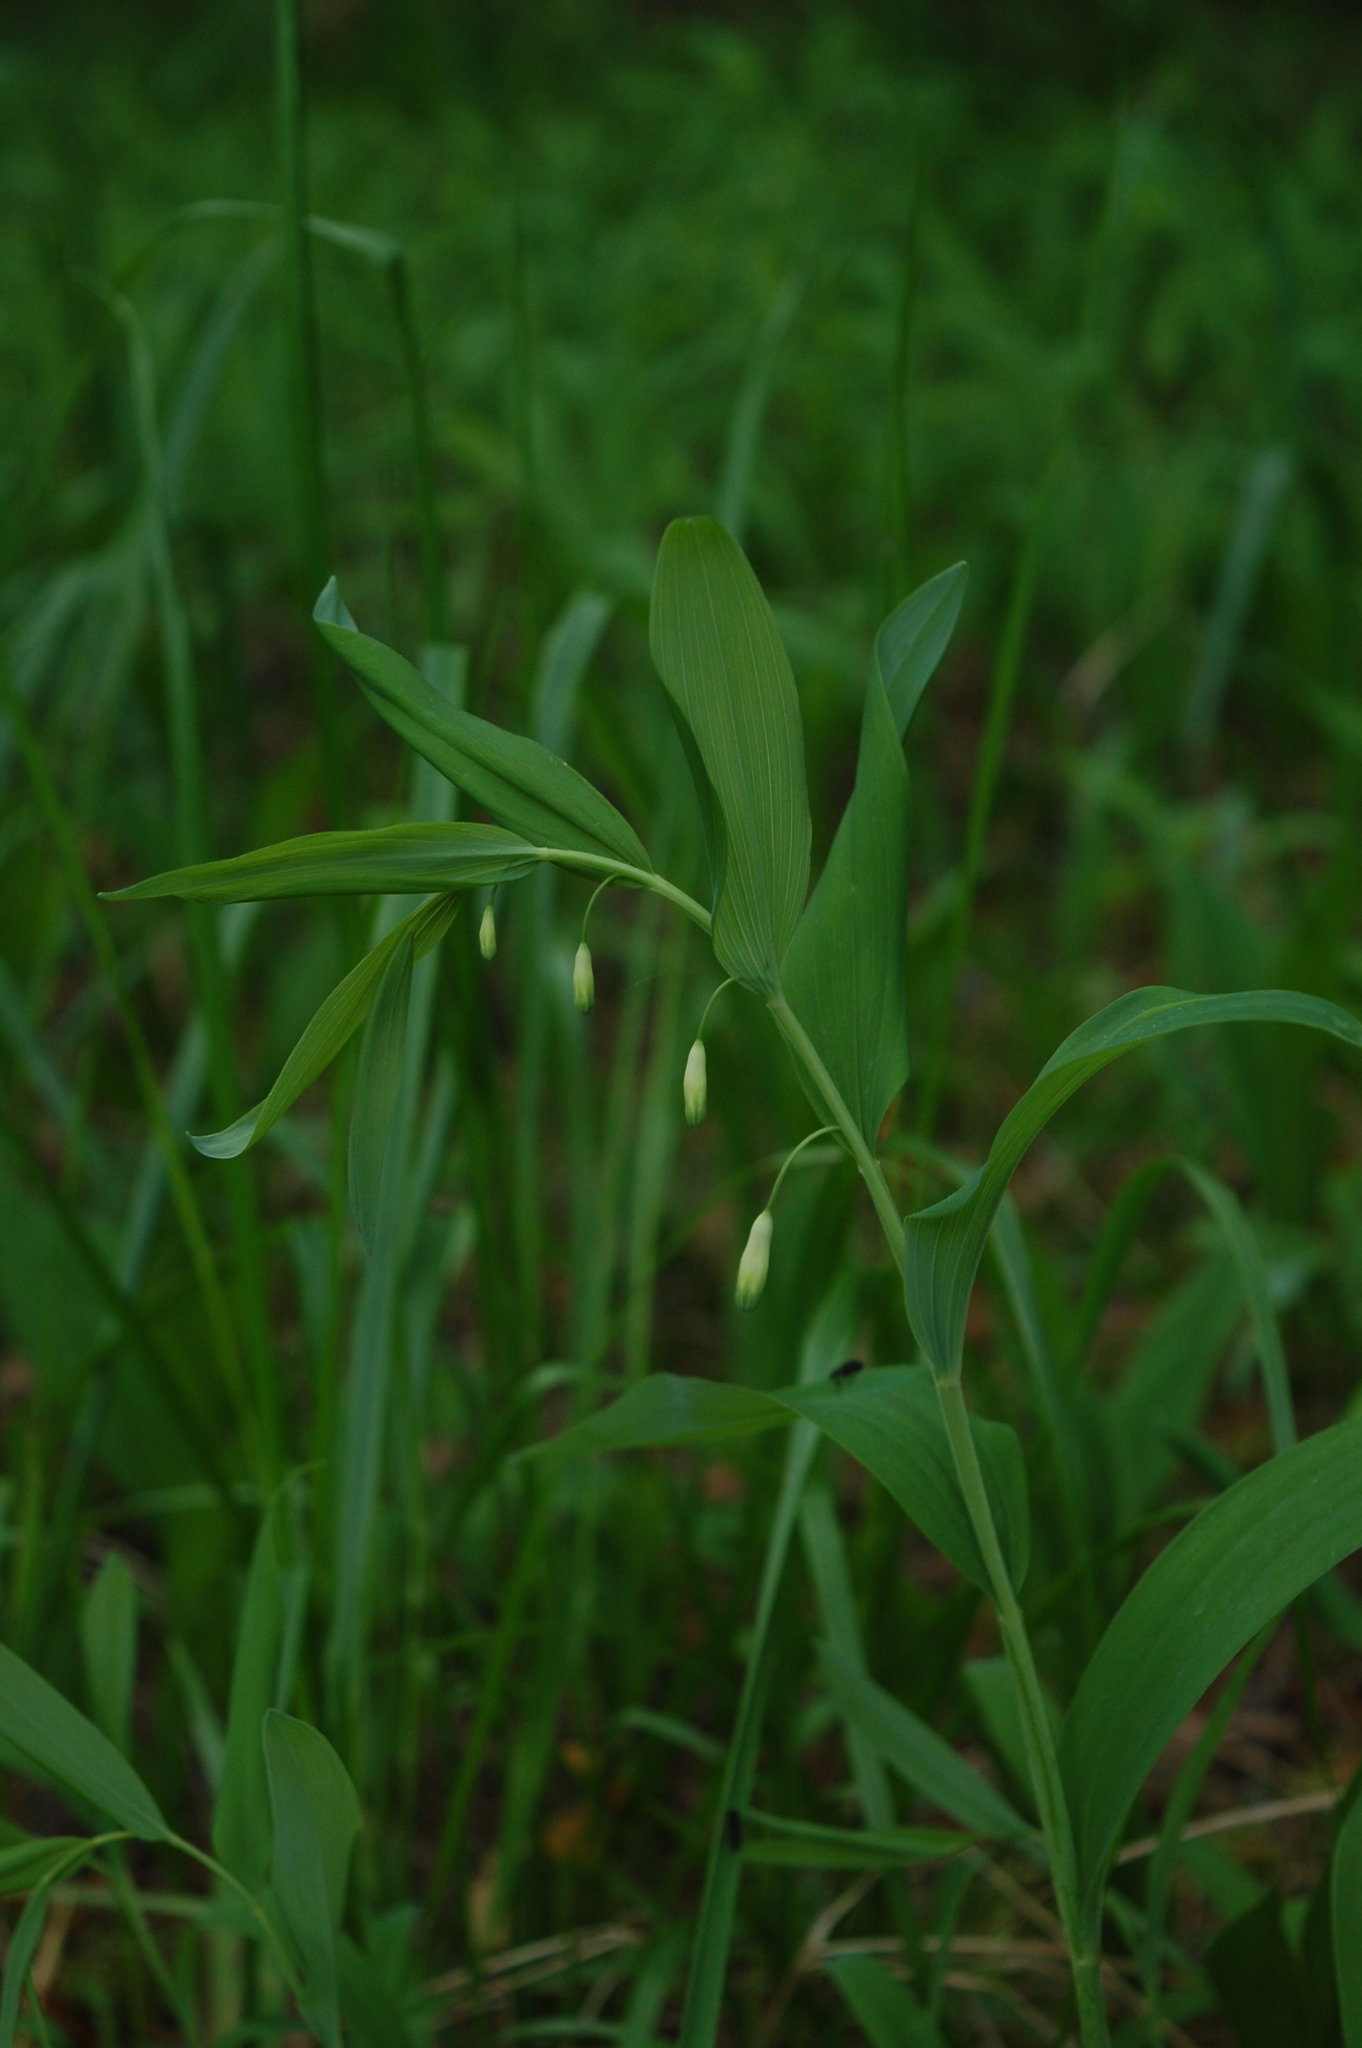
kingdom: Plantae
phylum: Tracheophyta
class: Liliopsida
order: Asparagales
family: Asparagaceae
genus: Polygonatum
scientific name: Polygonatum odoratum
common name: Angular solomon's-seal
